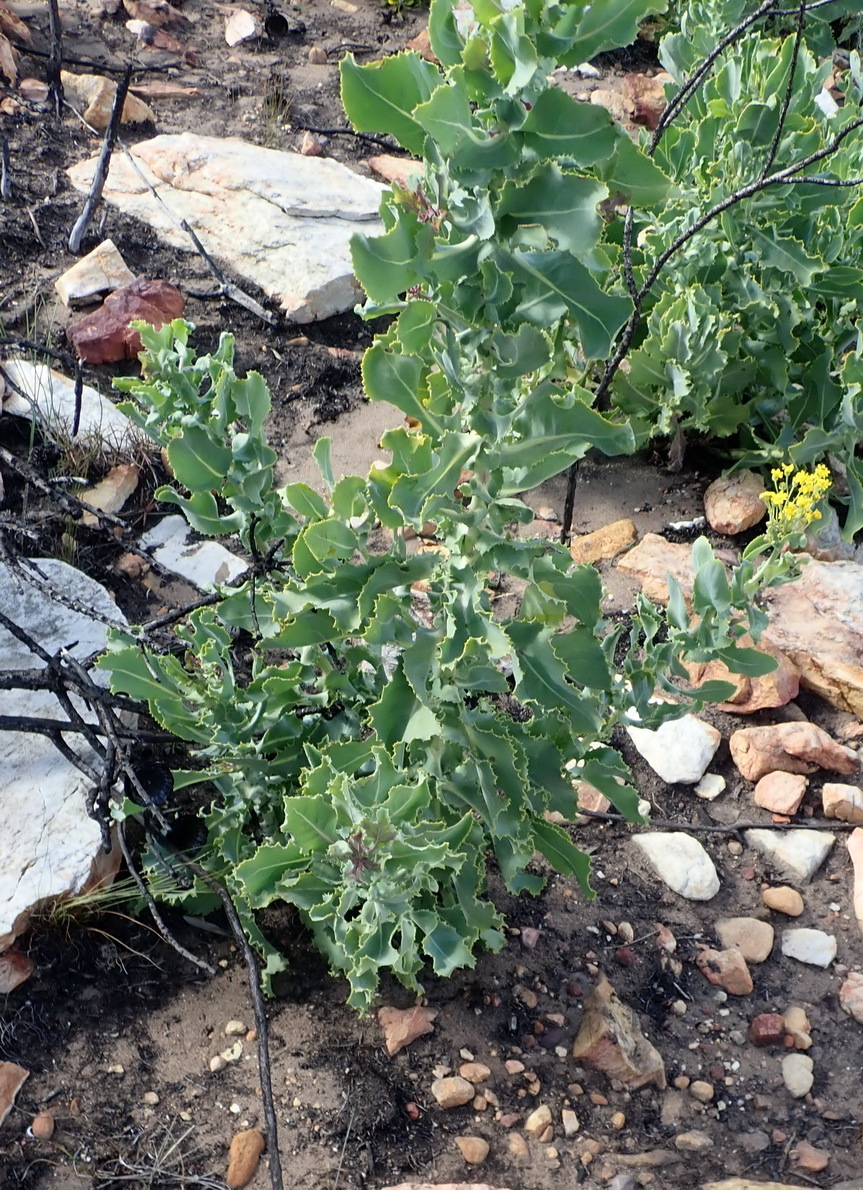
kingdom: Plantae
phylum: Tracheophyta
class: Magnoliopsida
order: Asterales
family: Asteraceae
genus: Othonna
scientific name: Othonna parviflora
